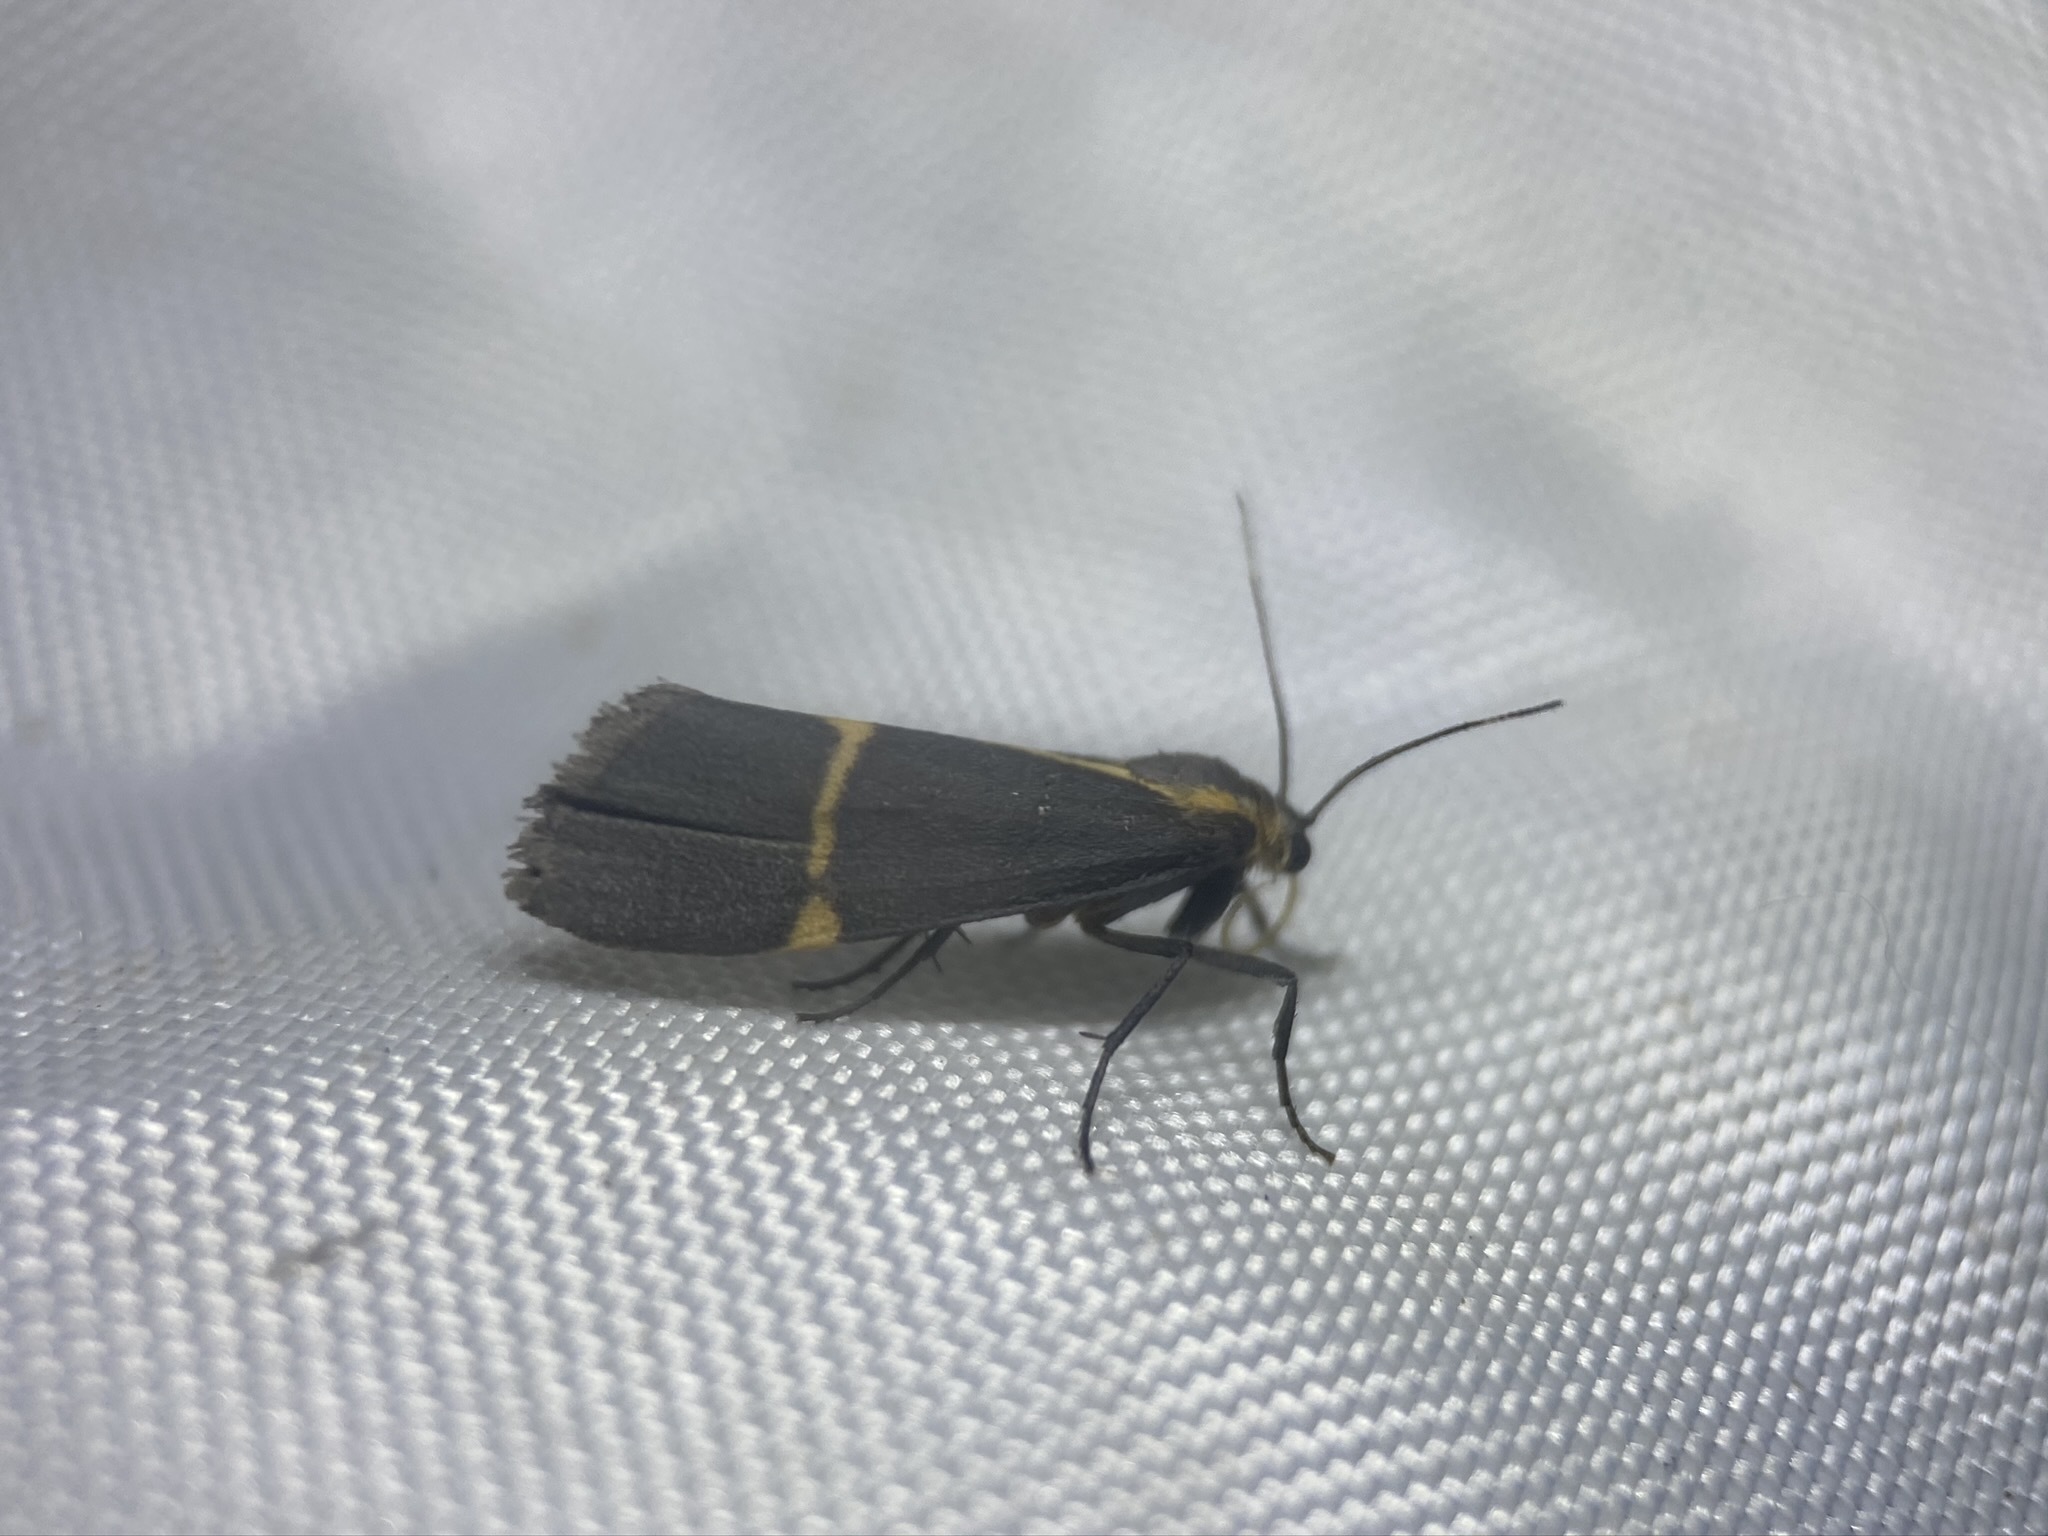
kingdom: Animalia
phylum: Arthropoda
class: Insecta
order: Lepidoptera
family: Erebidae
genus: Cisthene
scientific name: Cisthene barnesii
